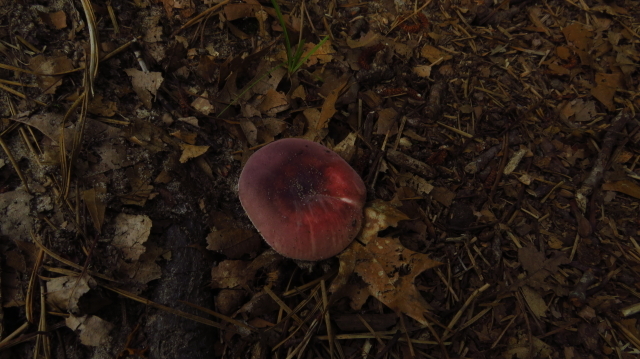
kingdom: Fungi
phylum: Basidiomycota
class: Agaricomycetes
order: Russulales
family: Russulaceae
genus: Russula
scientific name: Russula
